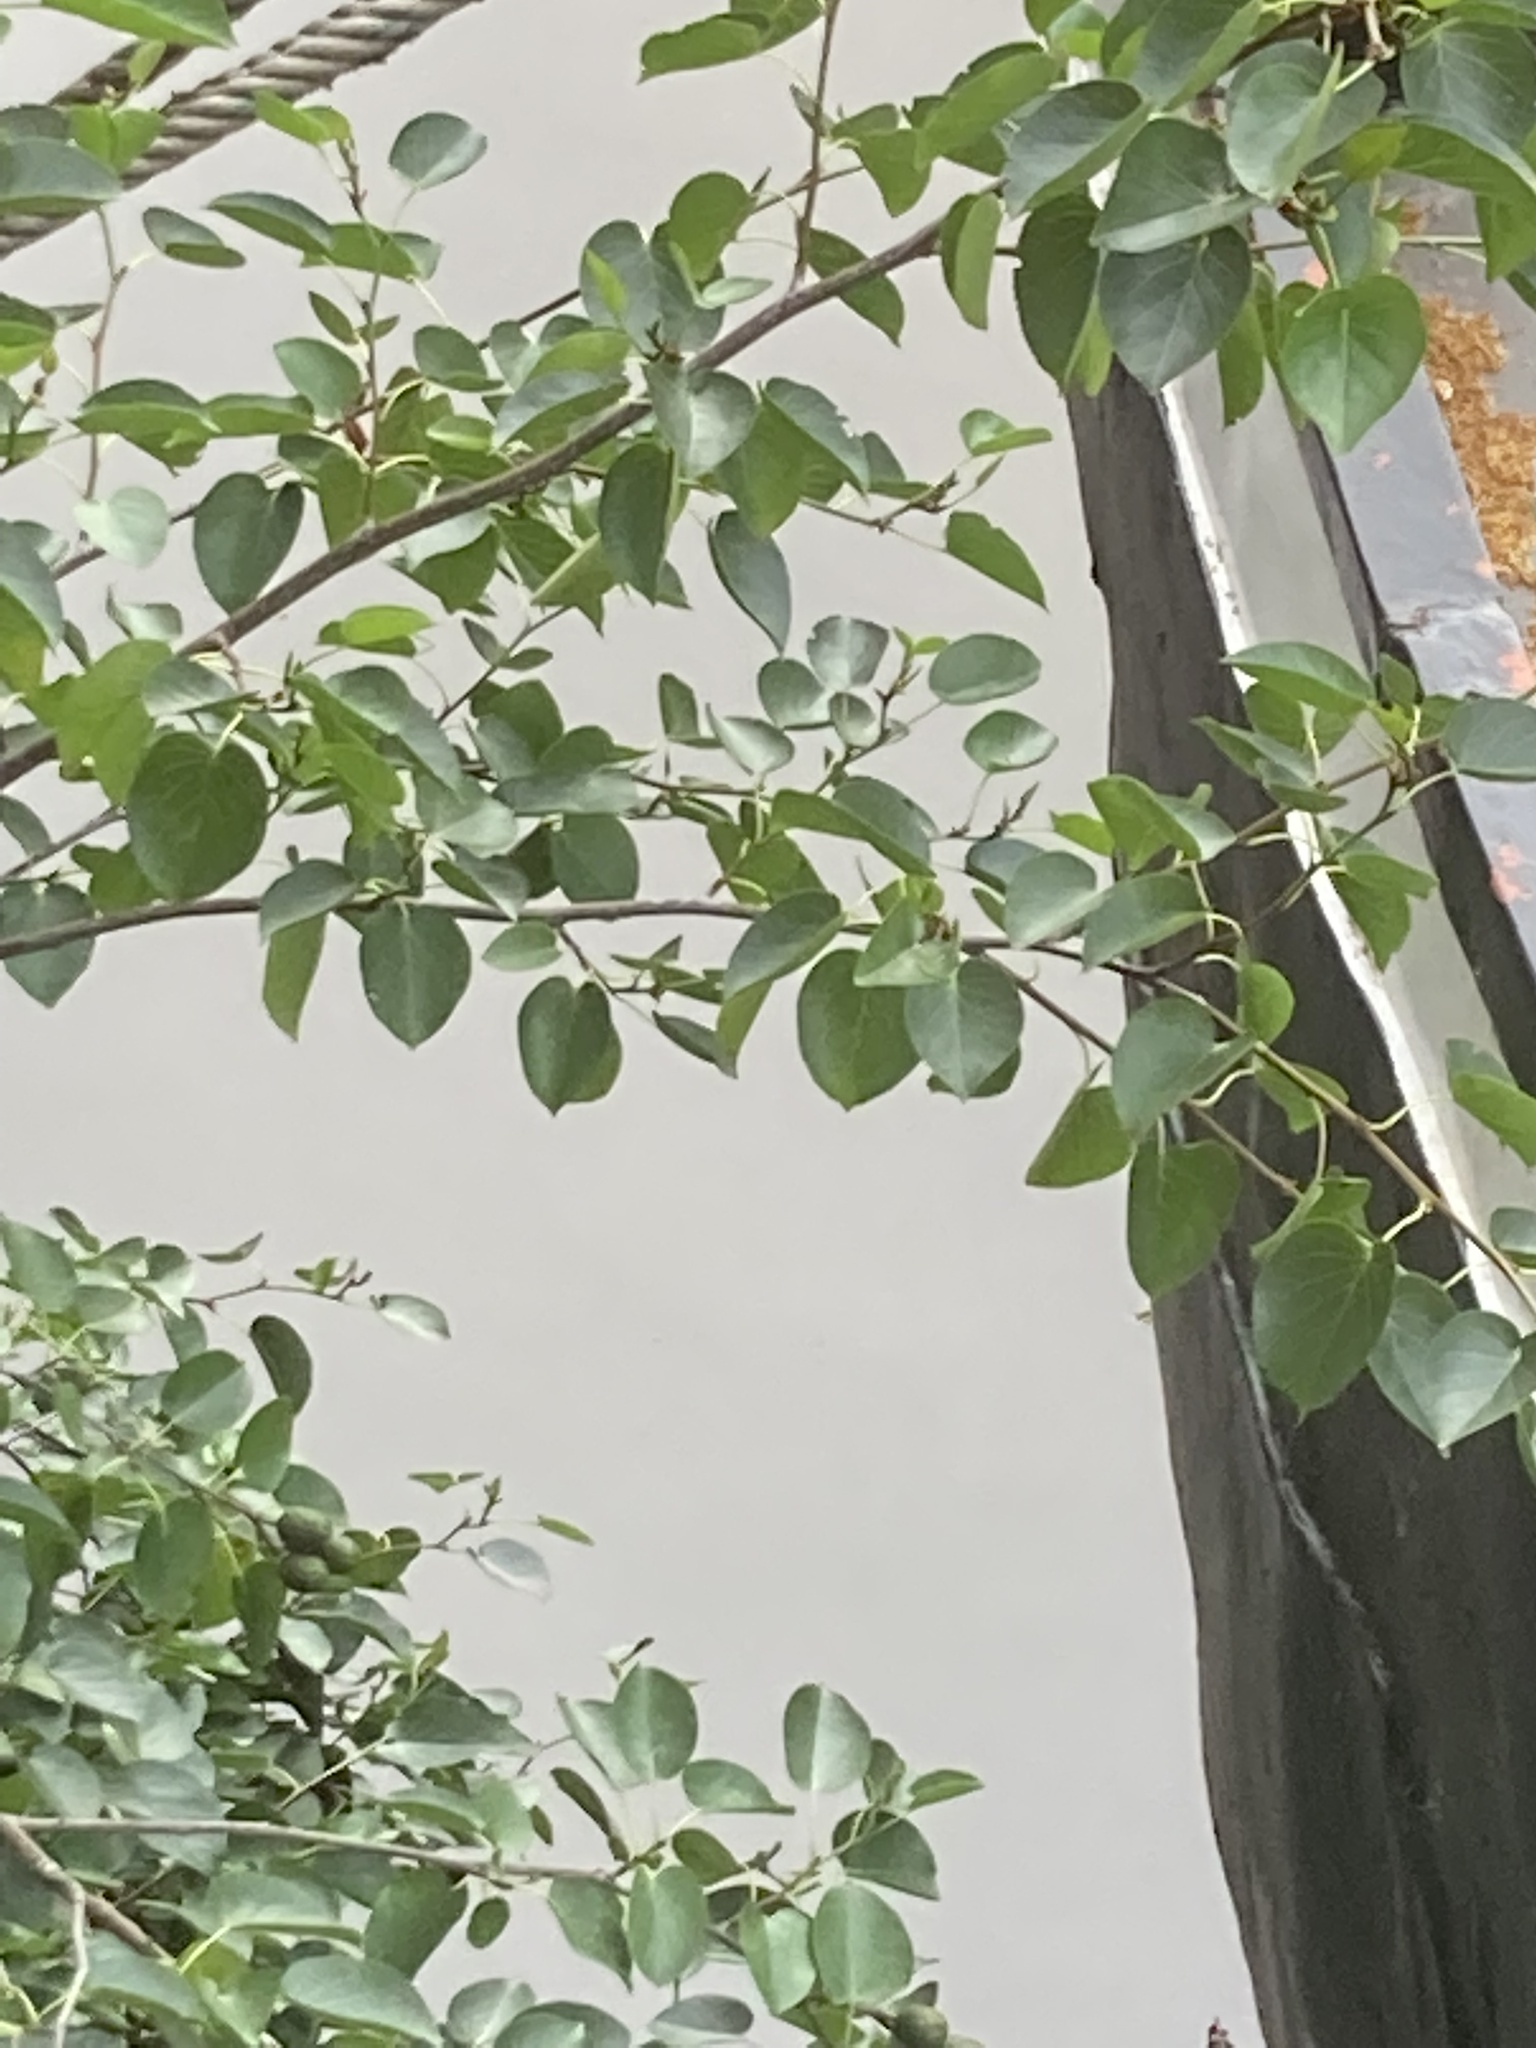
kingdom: Plantae
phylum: Tracheophyta
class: Magnoliopsida
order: Fagales
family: Betulaceae
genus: Alnus
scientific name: Alnus cordata
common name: Italian alder
